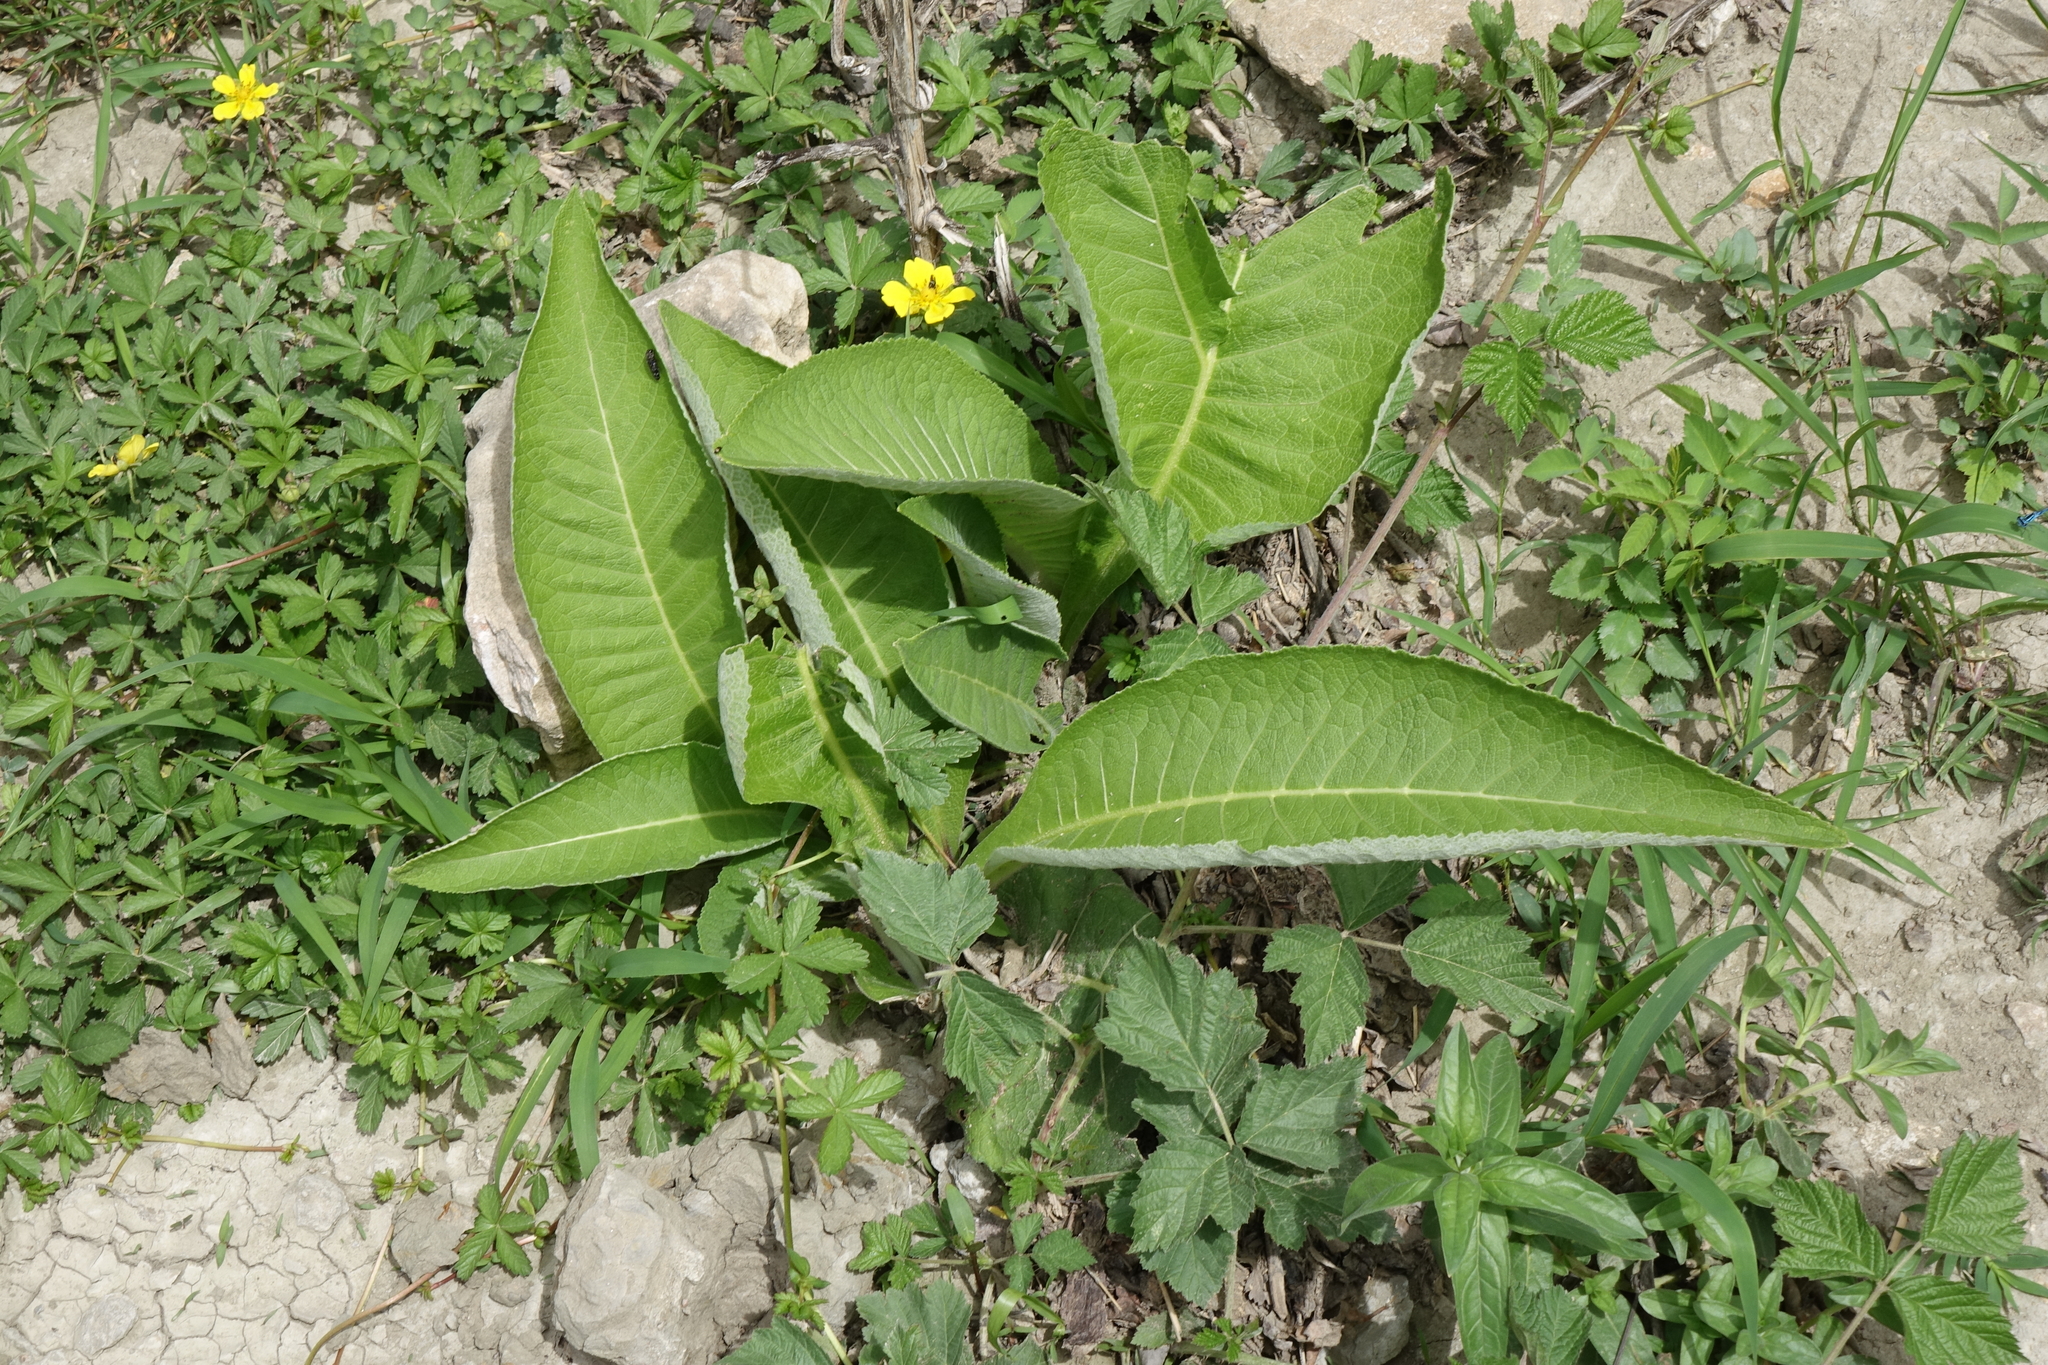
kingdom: Plantae
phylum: Tracheophyta
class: Magnoliopsida
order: Asterales
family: Asteraceae
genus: Inula
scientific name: Inula helenium
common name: Elecampane
